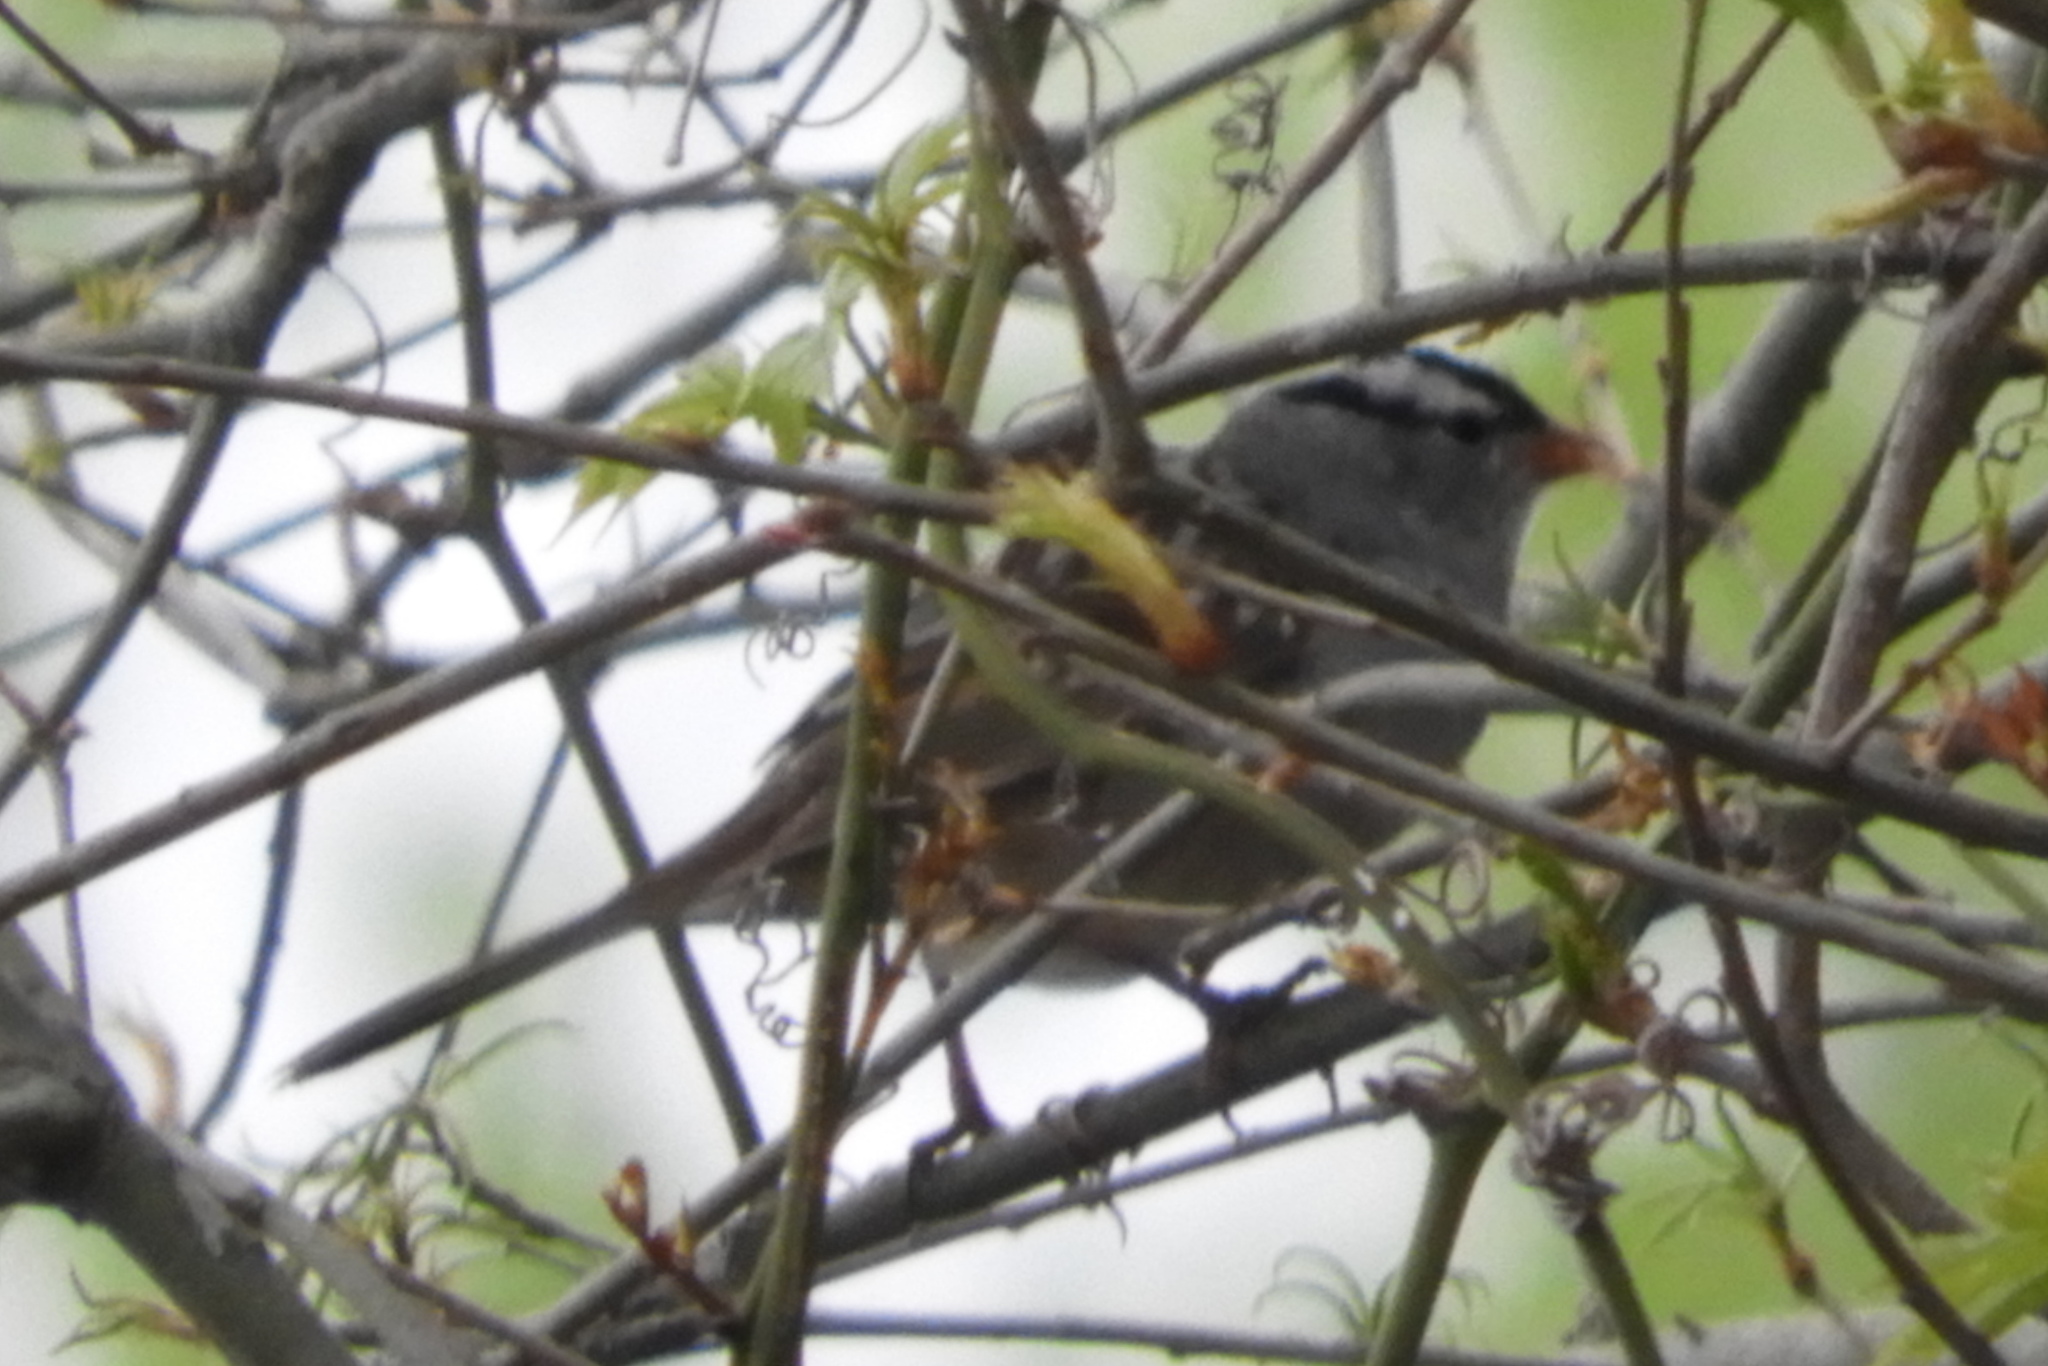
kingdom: Animalia
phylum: Chordata
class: Aves
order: Passeriformes
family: Passerellidae
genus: Zonotrichia
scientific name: Zonotrichia leucophrys
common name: White-crowned sparrow
